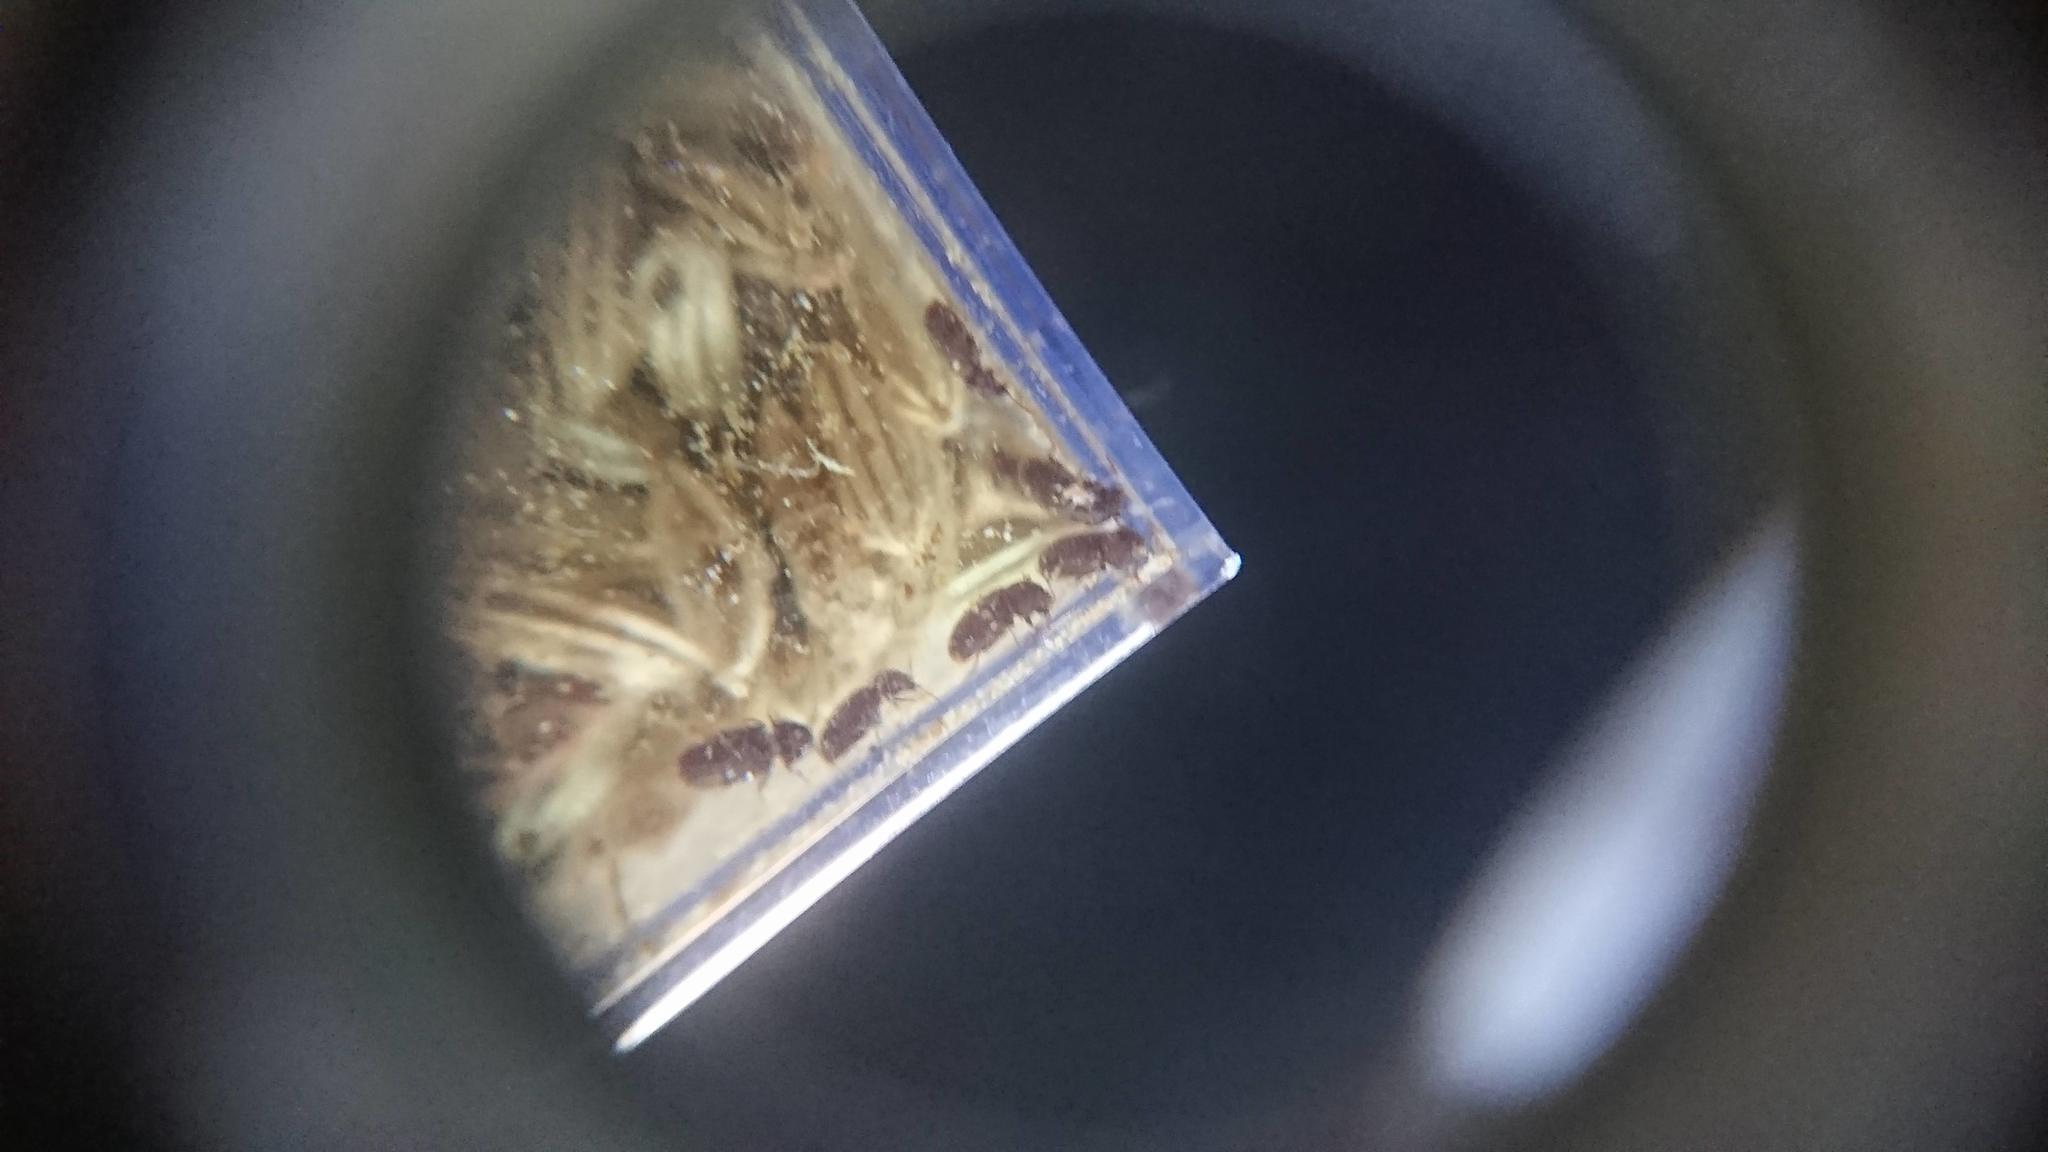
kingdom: Animalia
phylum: Arthropoda
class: Insecta
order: Coleoptera
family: Anobiidae
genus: Stegobium
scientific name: Stegobium paniceum
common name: Drugstore beetle
